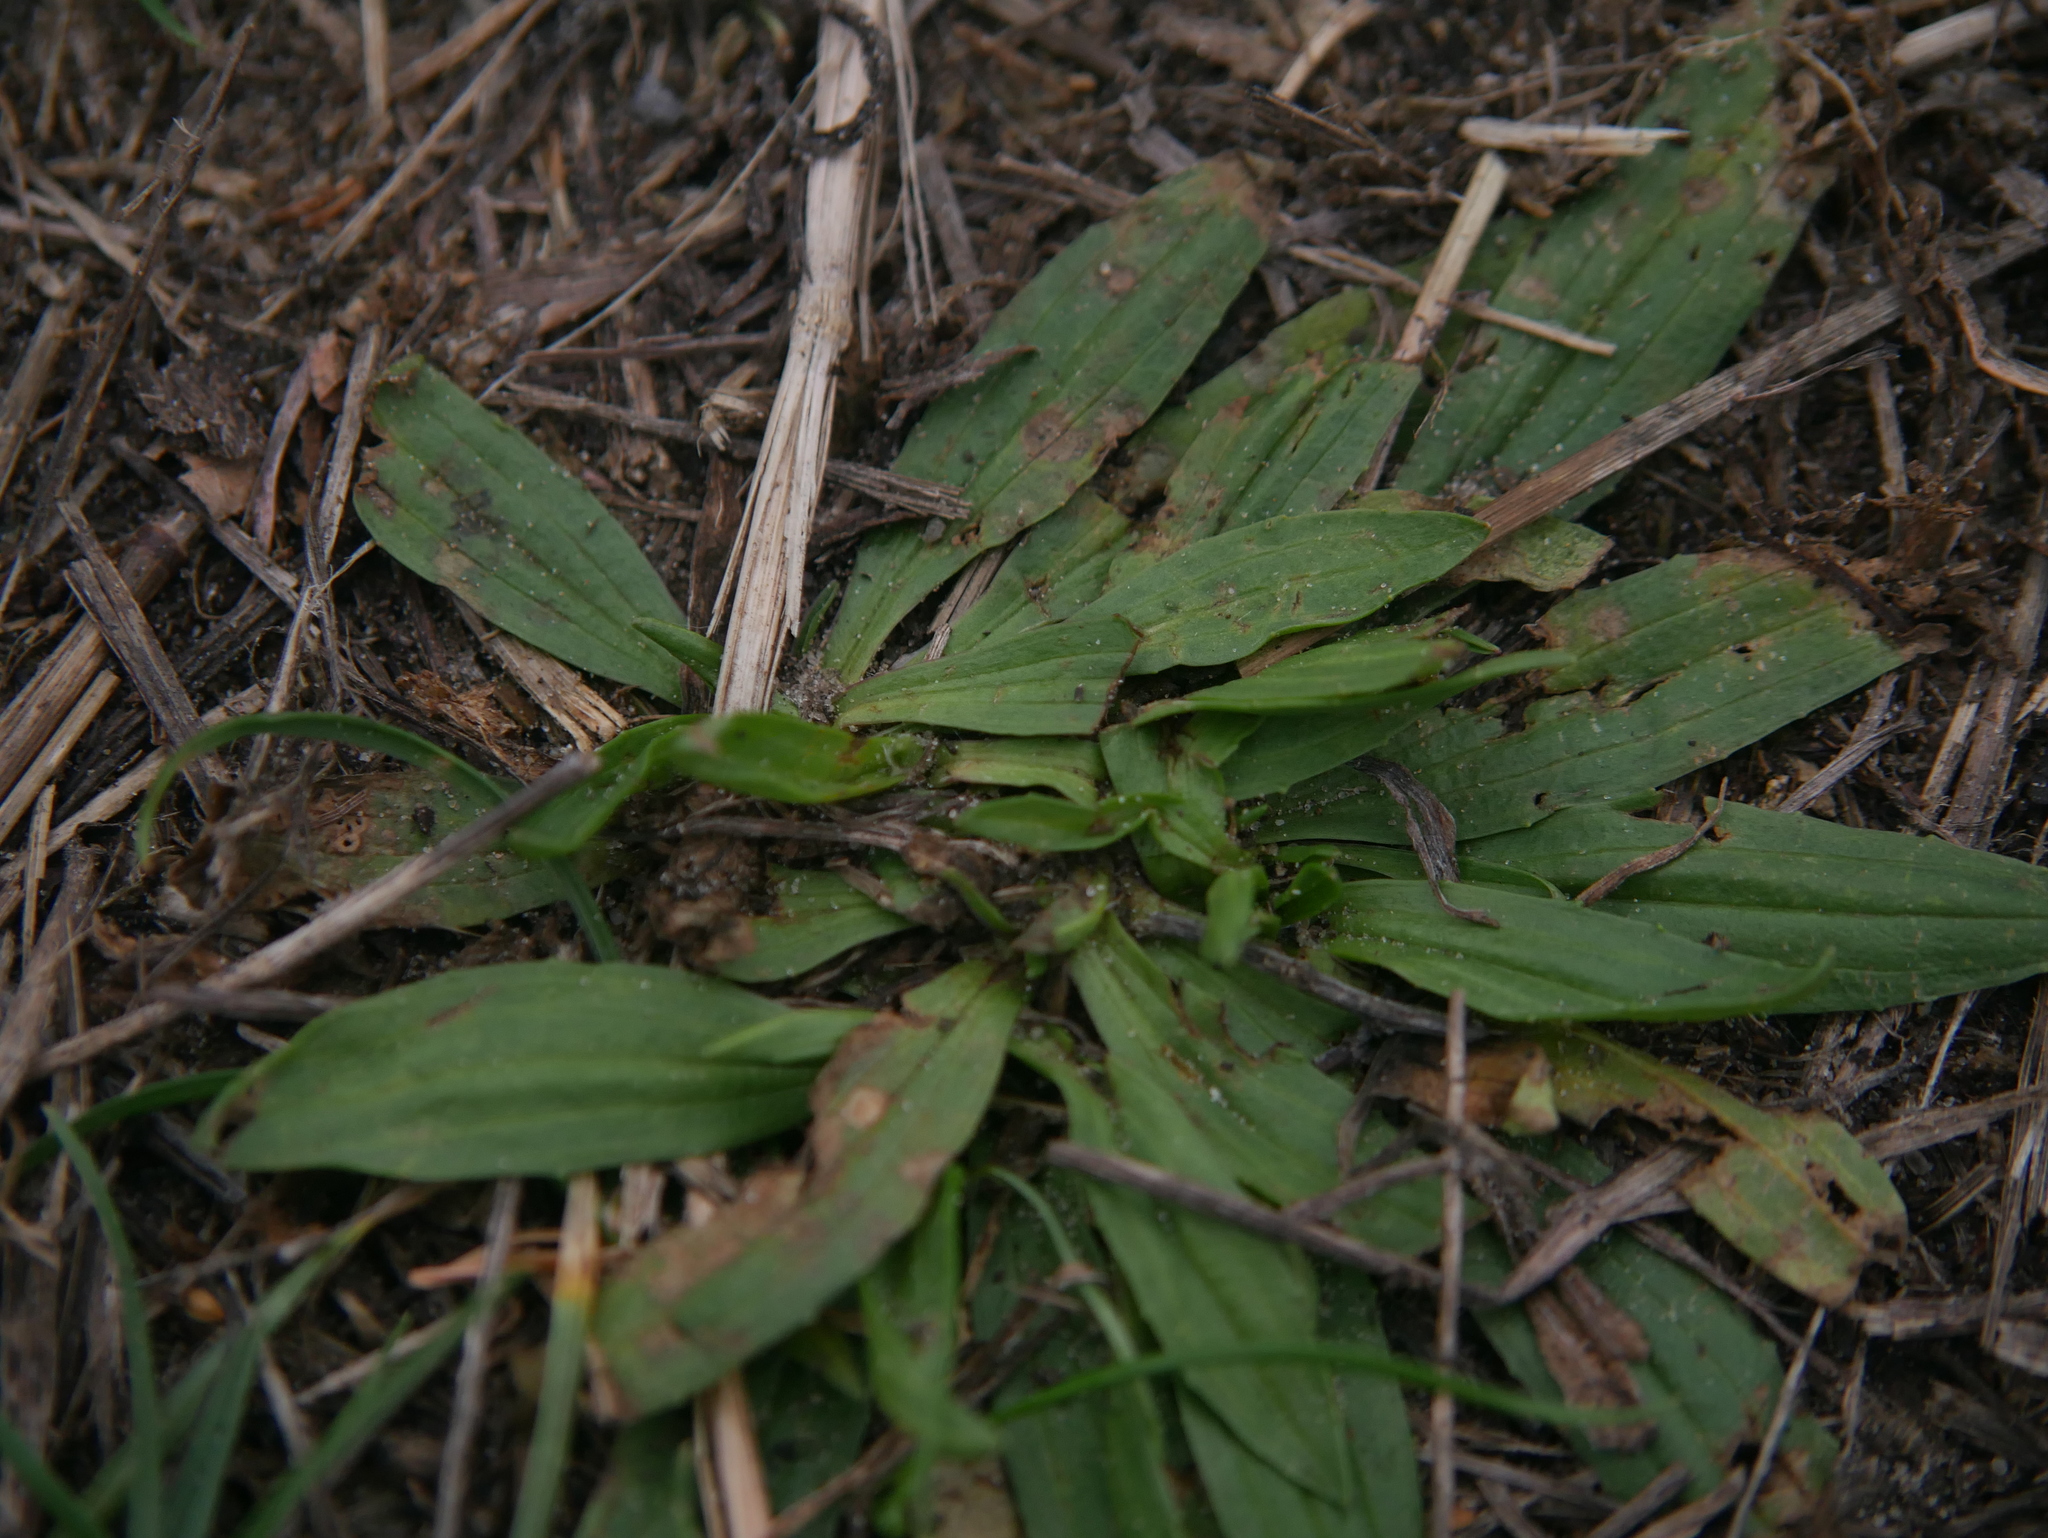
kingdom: Plantae
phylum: Tracheophyta
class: Magnoliopsida
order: Lamiales
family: Plantaginaceae
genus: Plantago
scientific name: Plantago lanceolata
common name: Ribwort plantain
